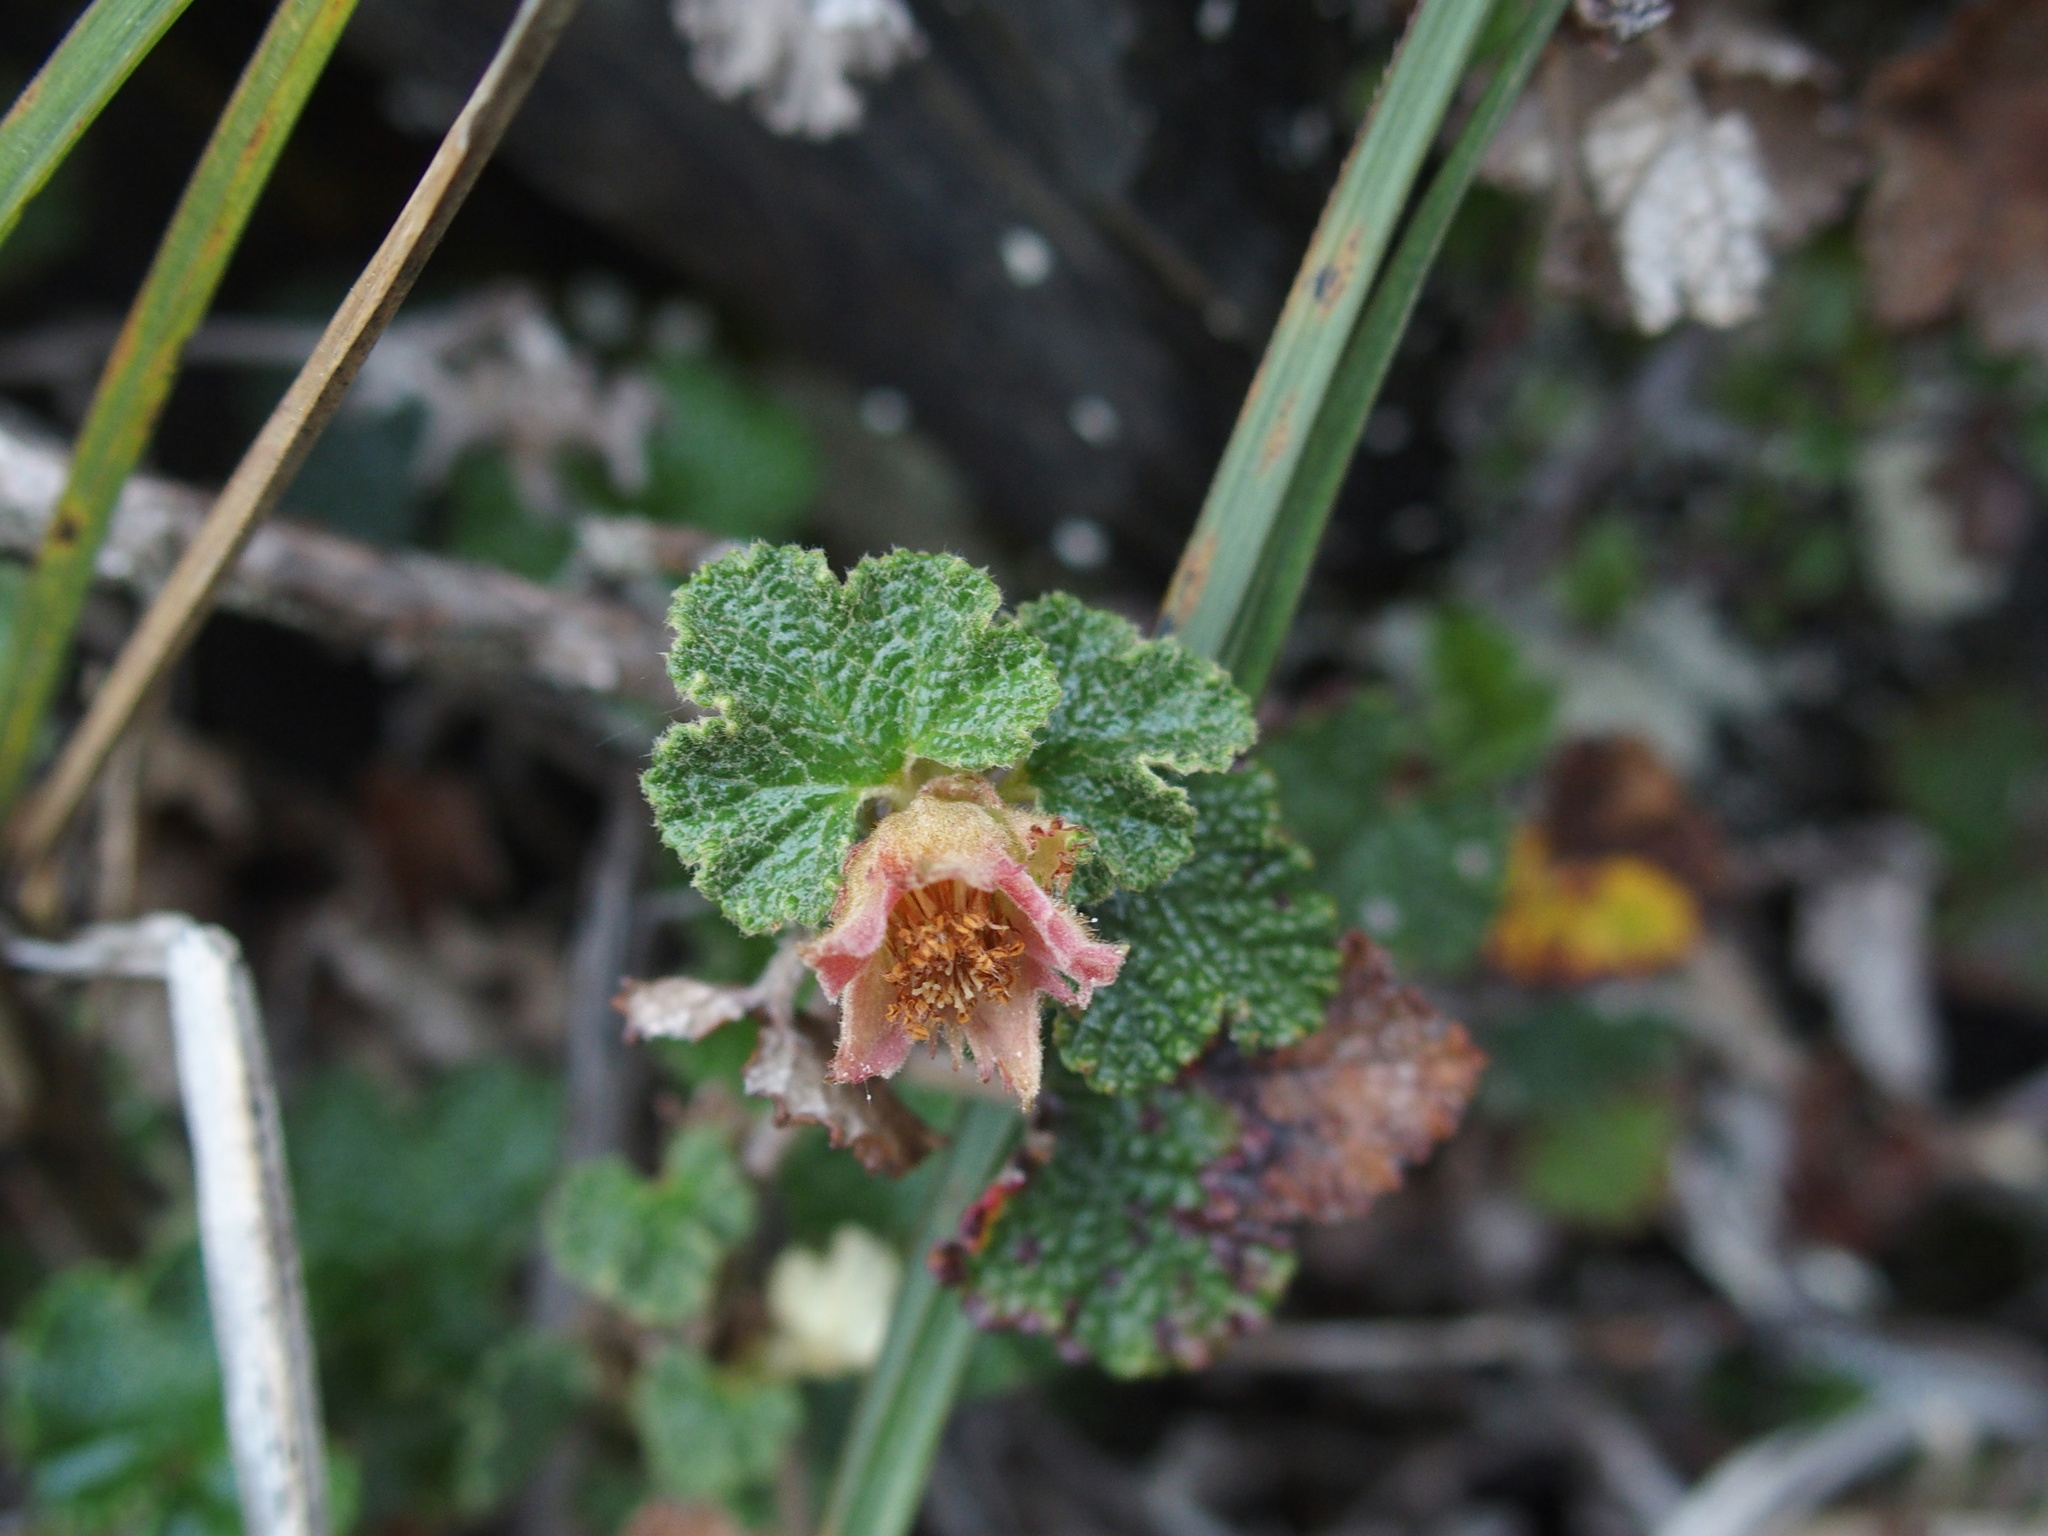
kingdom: Plantae
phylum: Tracheophyta
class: Magnoliopsida
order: Rosales
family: Rosaceae
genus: Rubus
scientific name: Rubus rolfei
